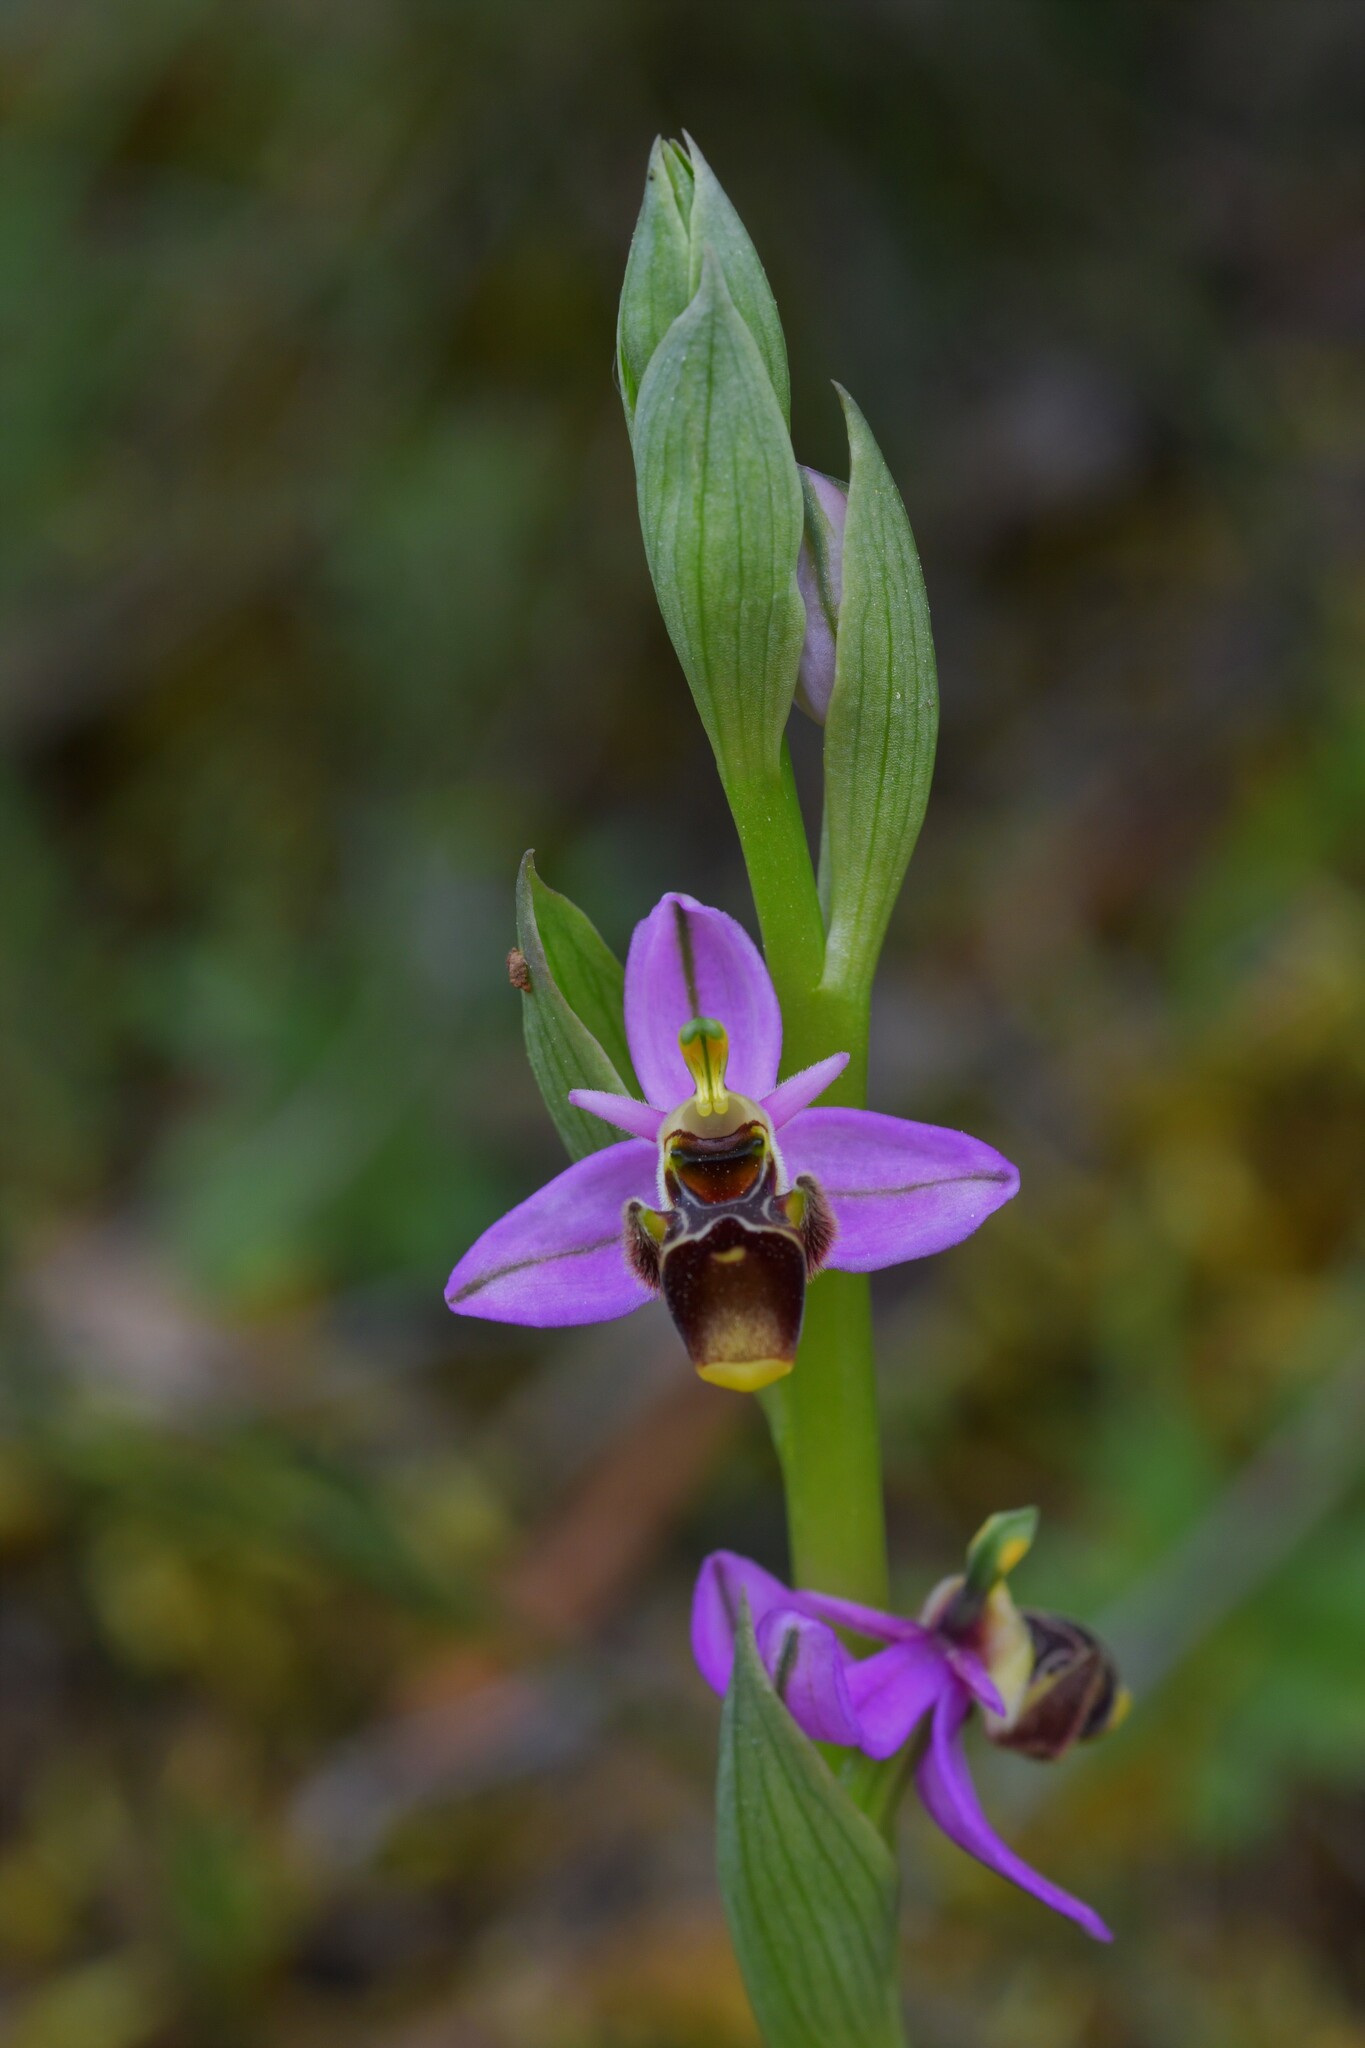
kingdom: Plantae
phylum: Tracheophyta
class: Liliopsida
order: Asparagales
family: Orchidaceae
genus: Ophrys
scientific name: Ophrys scolopax
